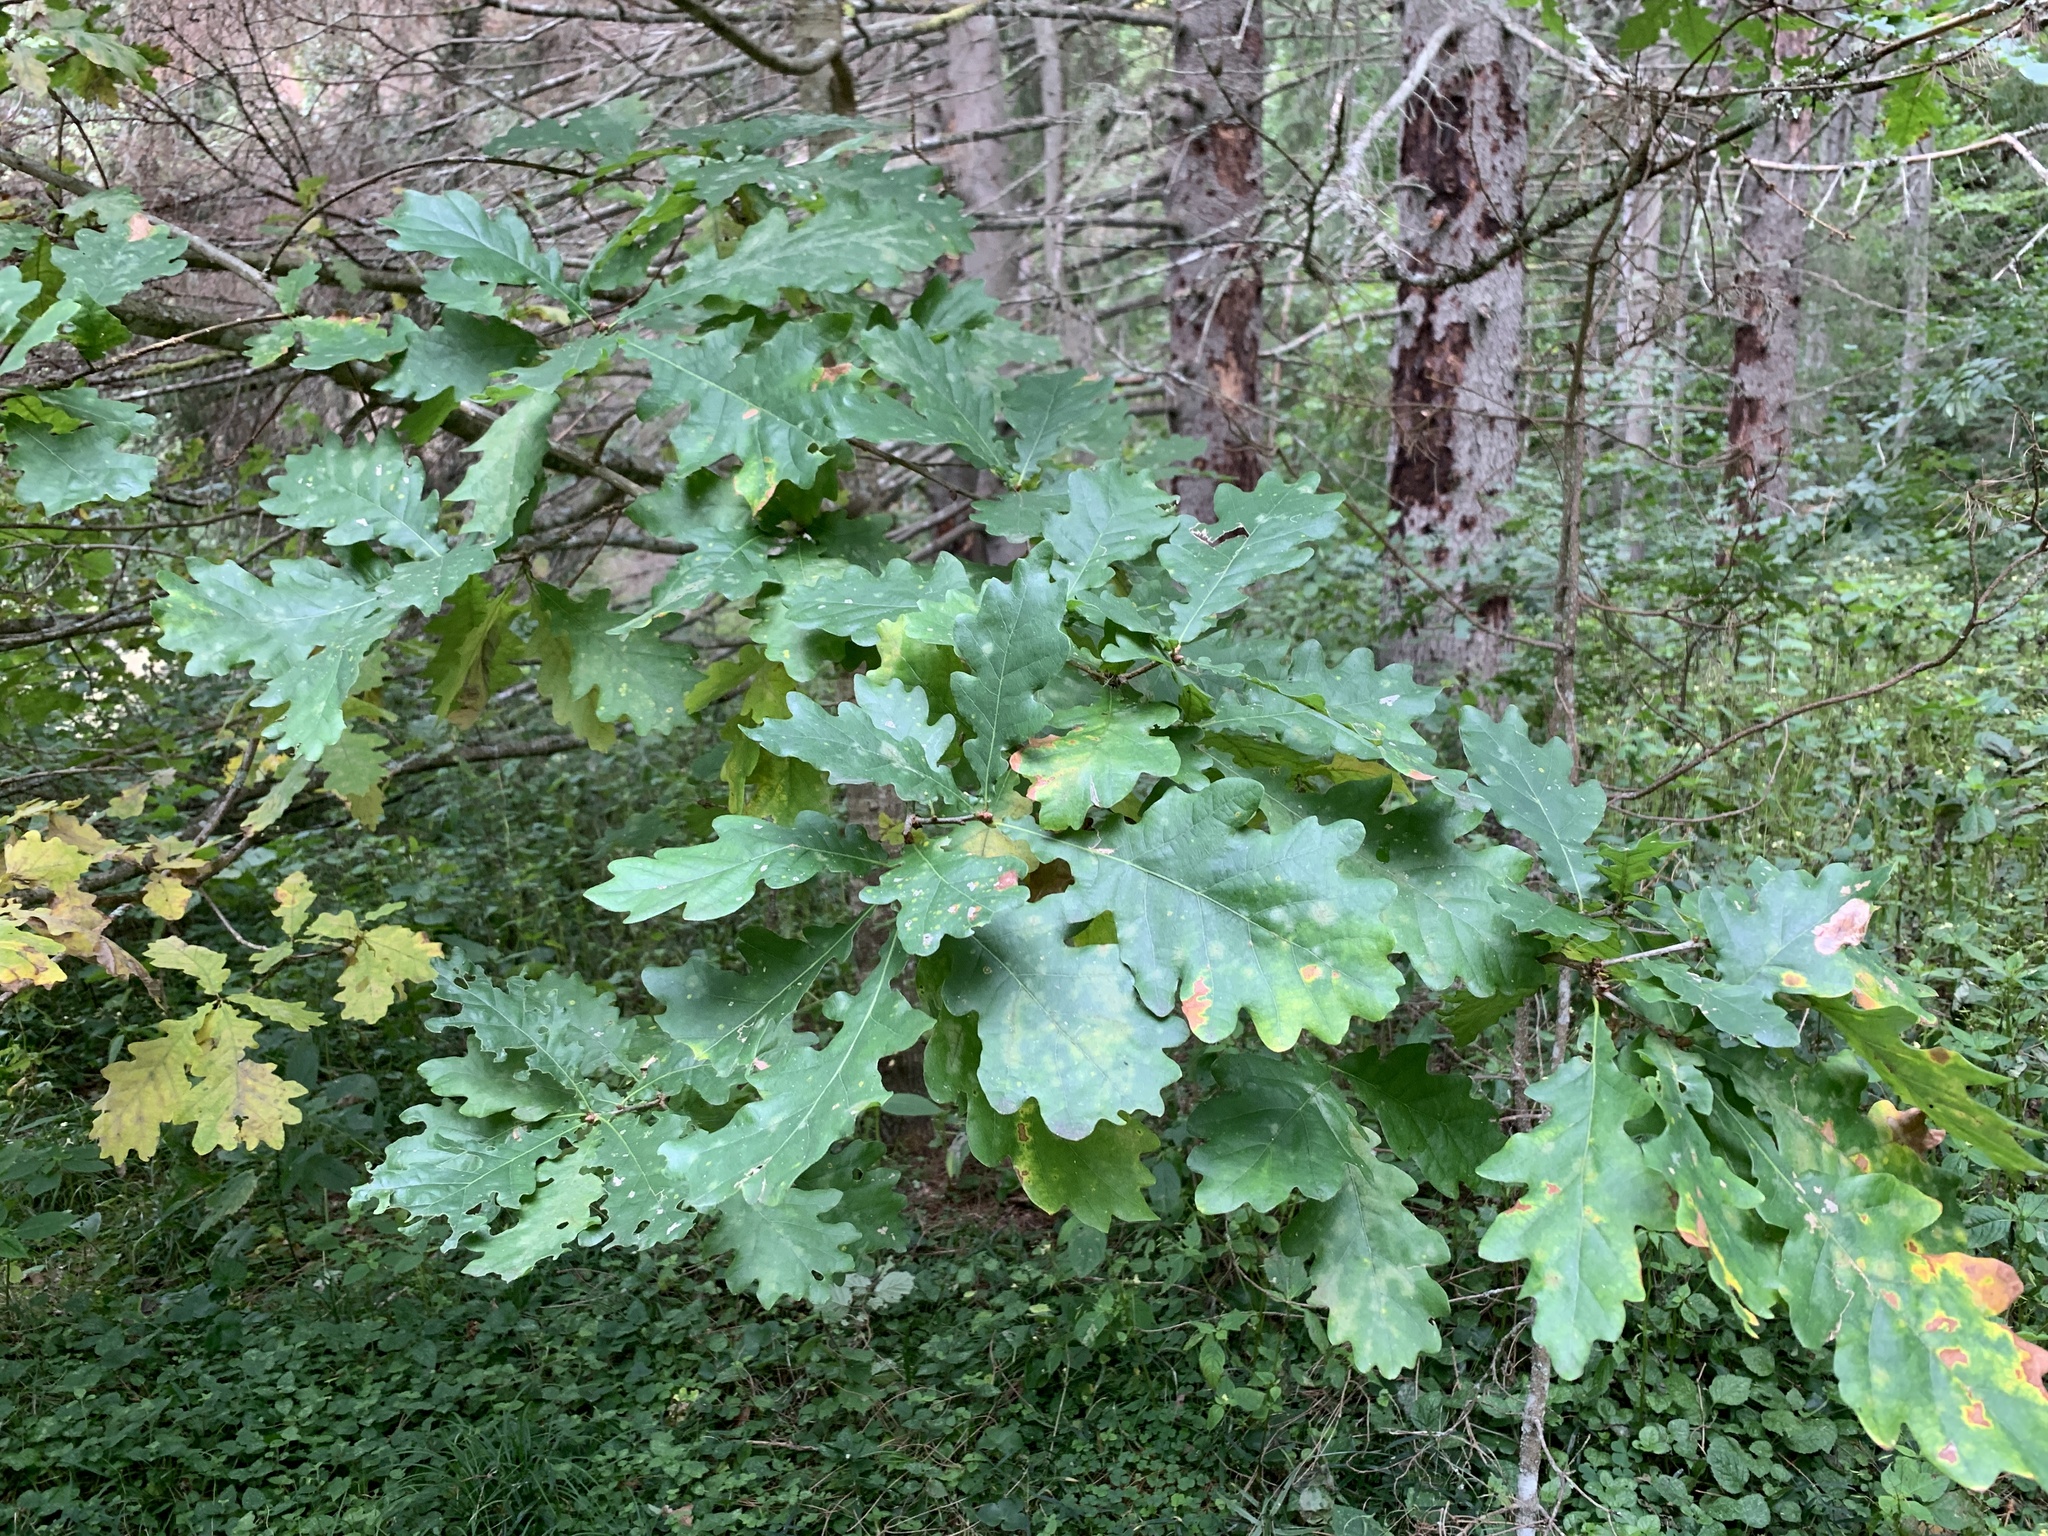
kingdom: Plantae
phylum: Tracheophyta
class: Magnoliopsida
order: Fagales
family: Fagaceae
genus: Quercus
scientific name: Quercus robur
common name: Pedunculate oak
